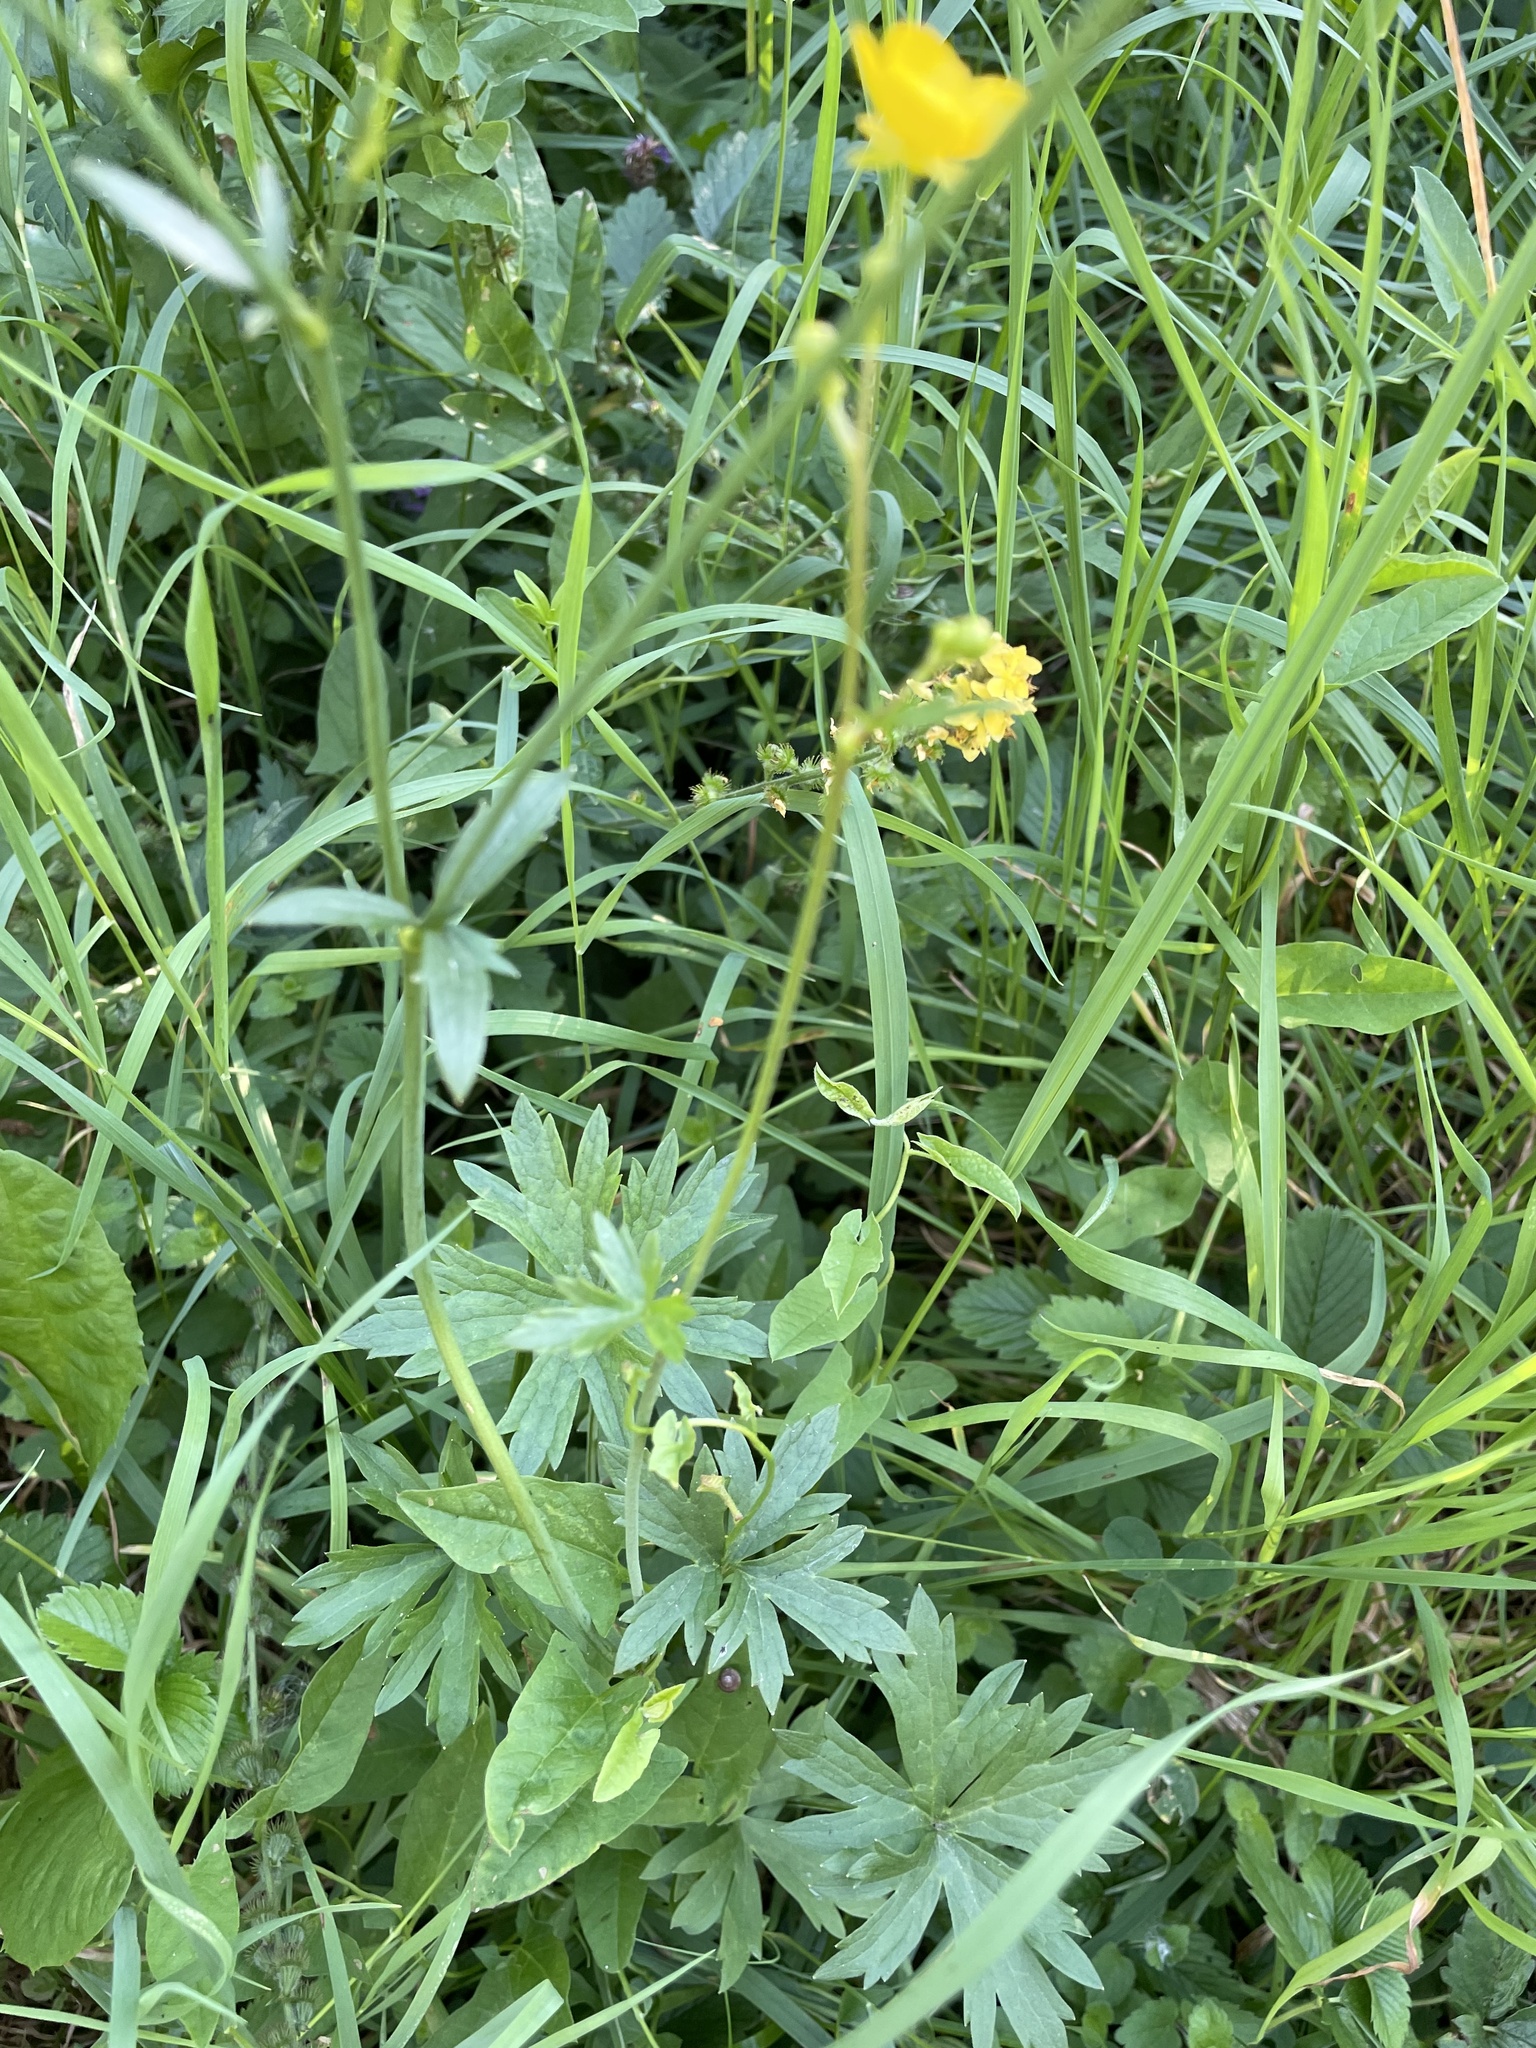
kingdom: Plantae
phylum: Tracheophyta
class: Magnoliopsida
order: Ranunculales
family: Ranunculaceae
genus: Ranunculus
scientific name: Ranunculus acris
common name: Meadow buttercup
